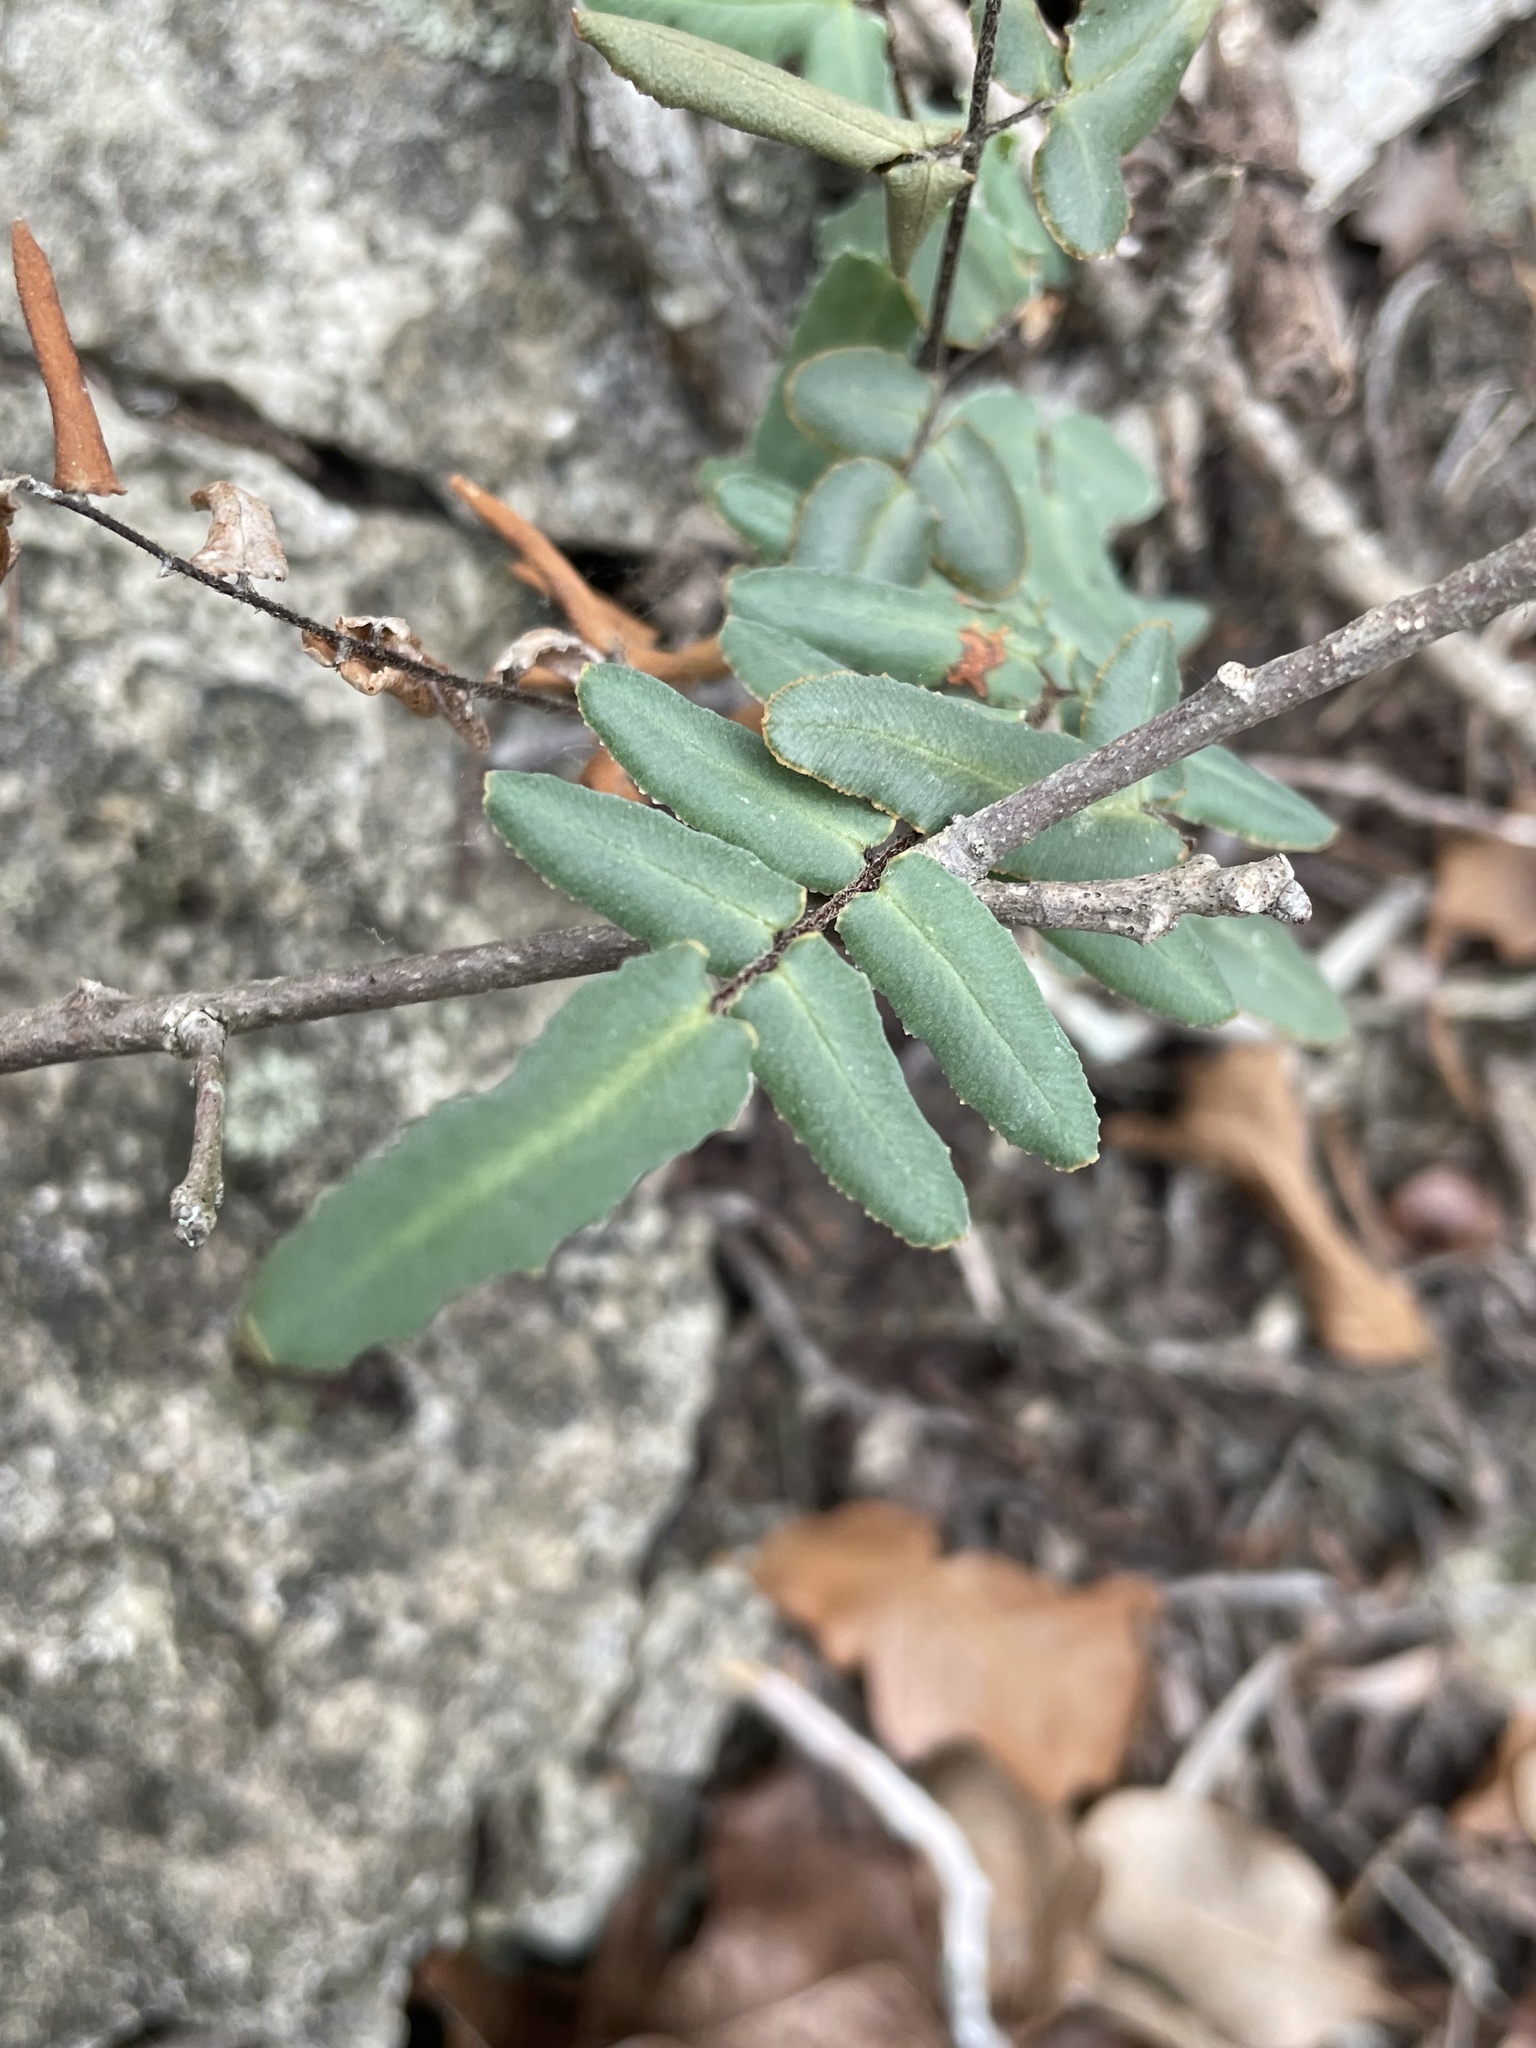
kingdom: Plantae
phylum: Tracheophyta
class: Polypodiopsida
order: Polypodiales
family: Pteridaceae
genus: Pellaea
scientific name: Pellaea atropurpurea
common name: Hairy cliffbrake
